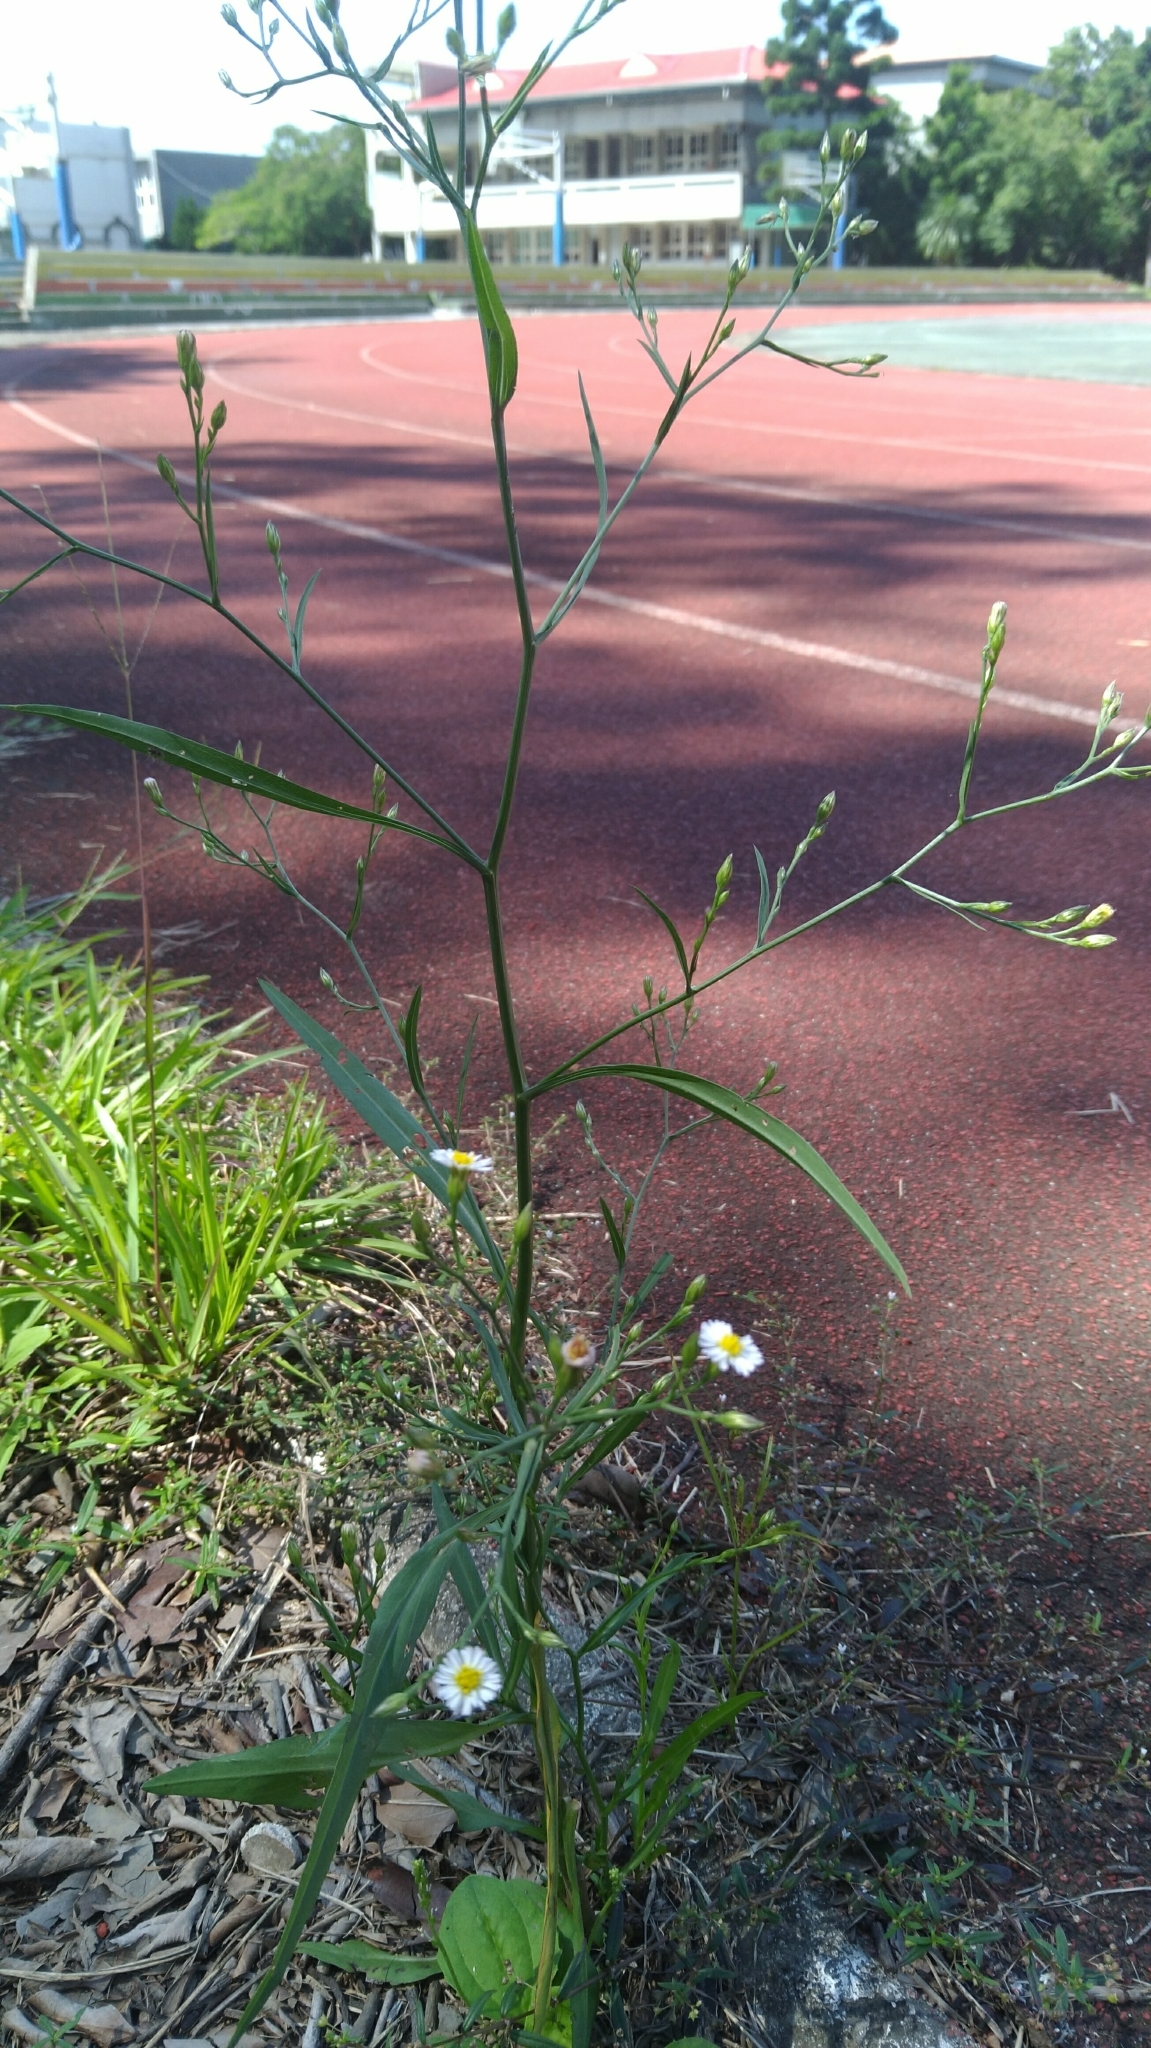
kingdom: Plantae
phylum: Tracheophyta
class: Magnoliopsida
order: Asterales
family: Asteraceae
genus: Symphyotrichum
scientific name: Symphyotrichum subulatum
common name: Annual saltmarsh aster
